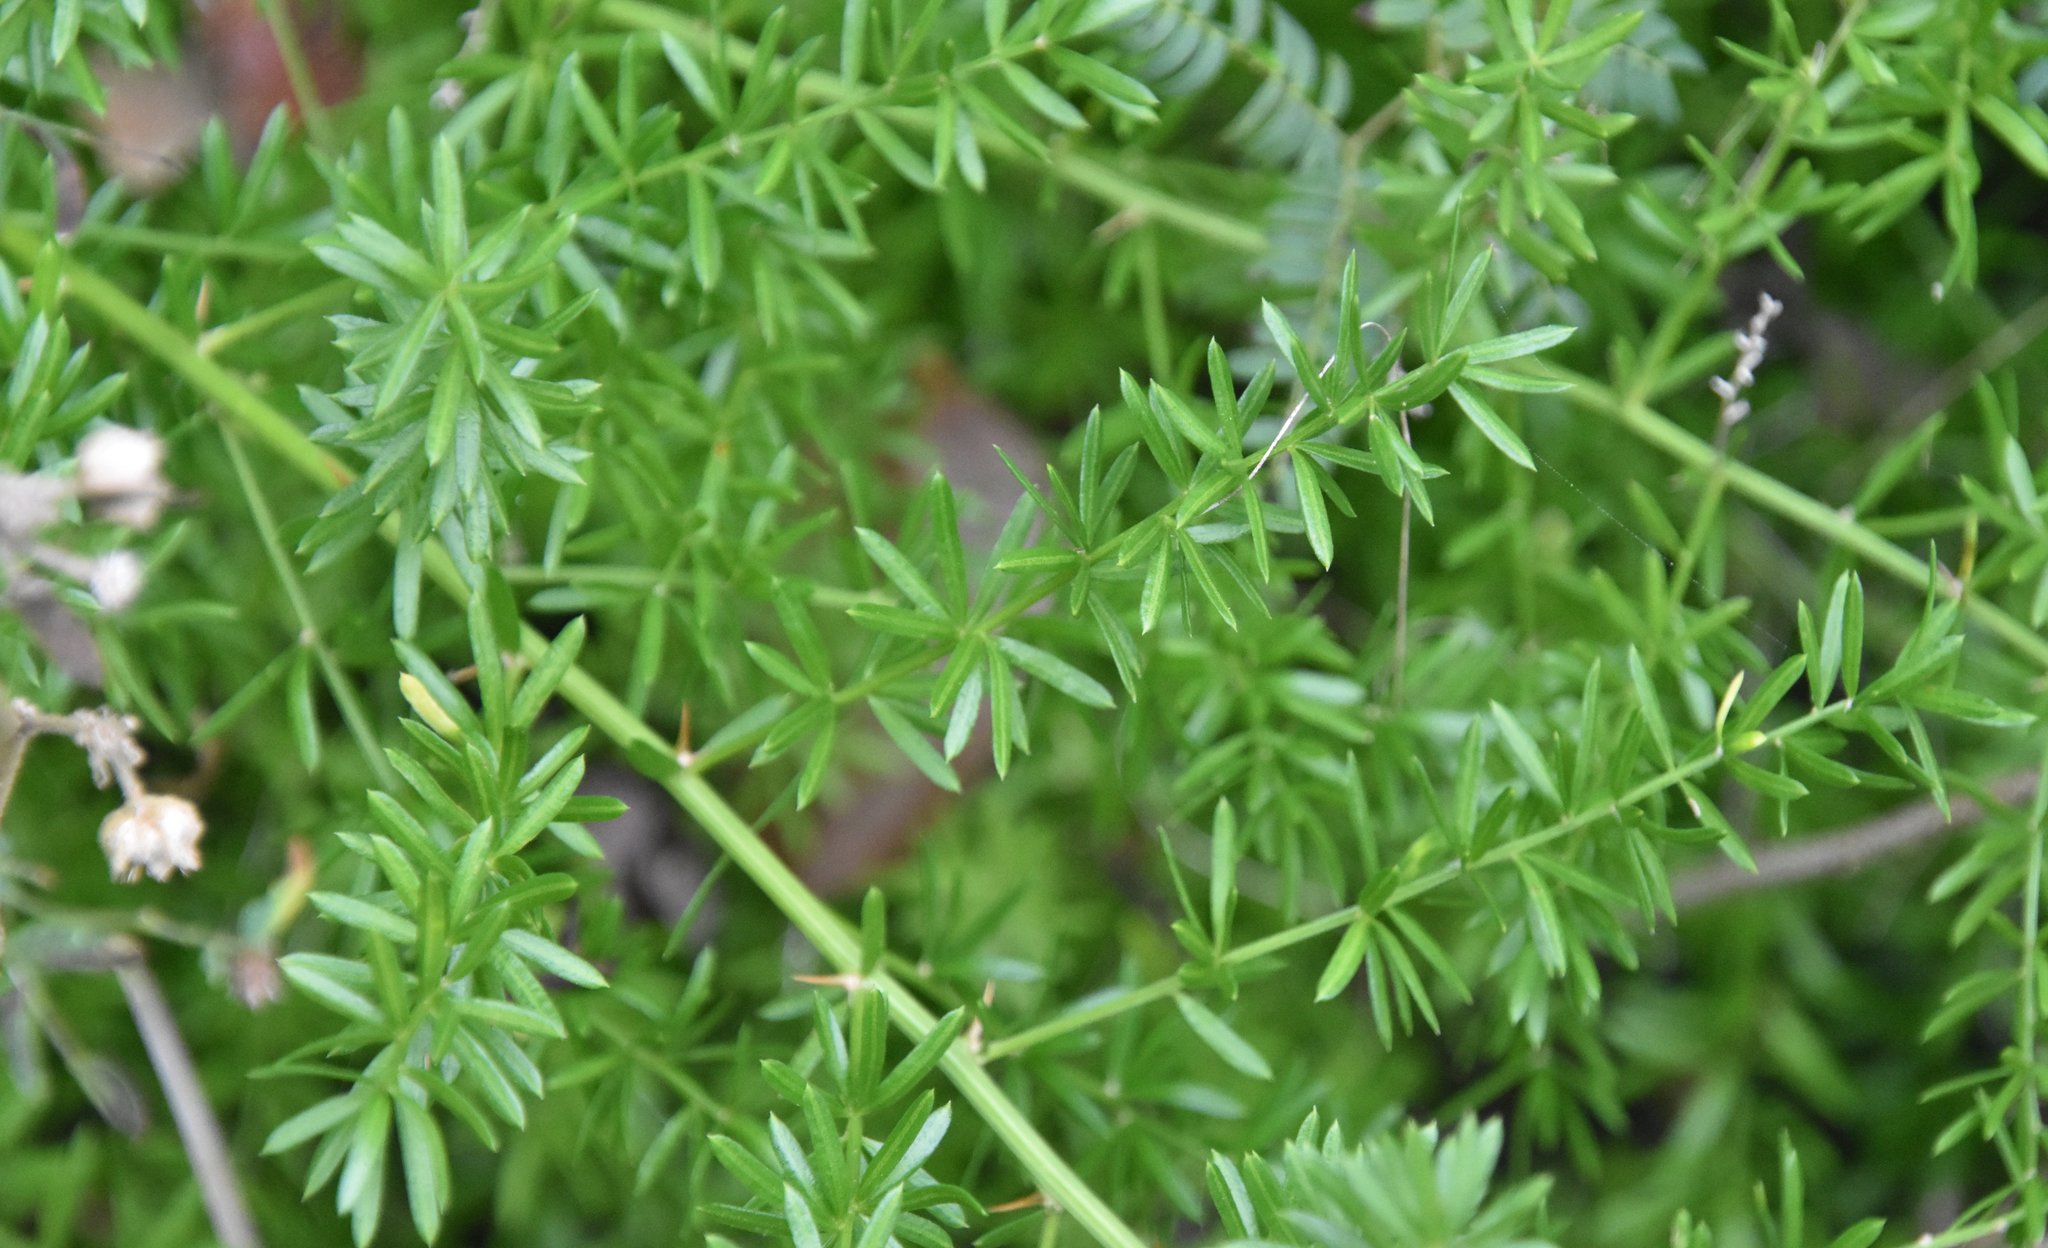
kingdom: Plantae
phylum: Tracheophyta
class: Liliopsida
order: Asparagales
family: Asparagaceae
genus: Asparagus
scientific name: Asparagus aethiopicus
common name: Sprenger's asparagus fern
